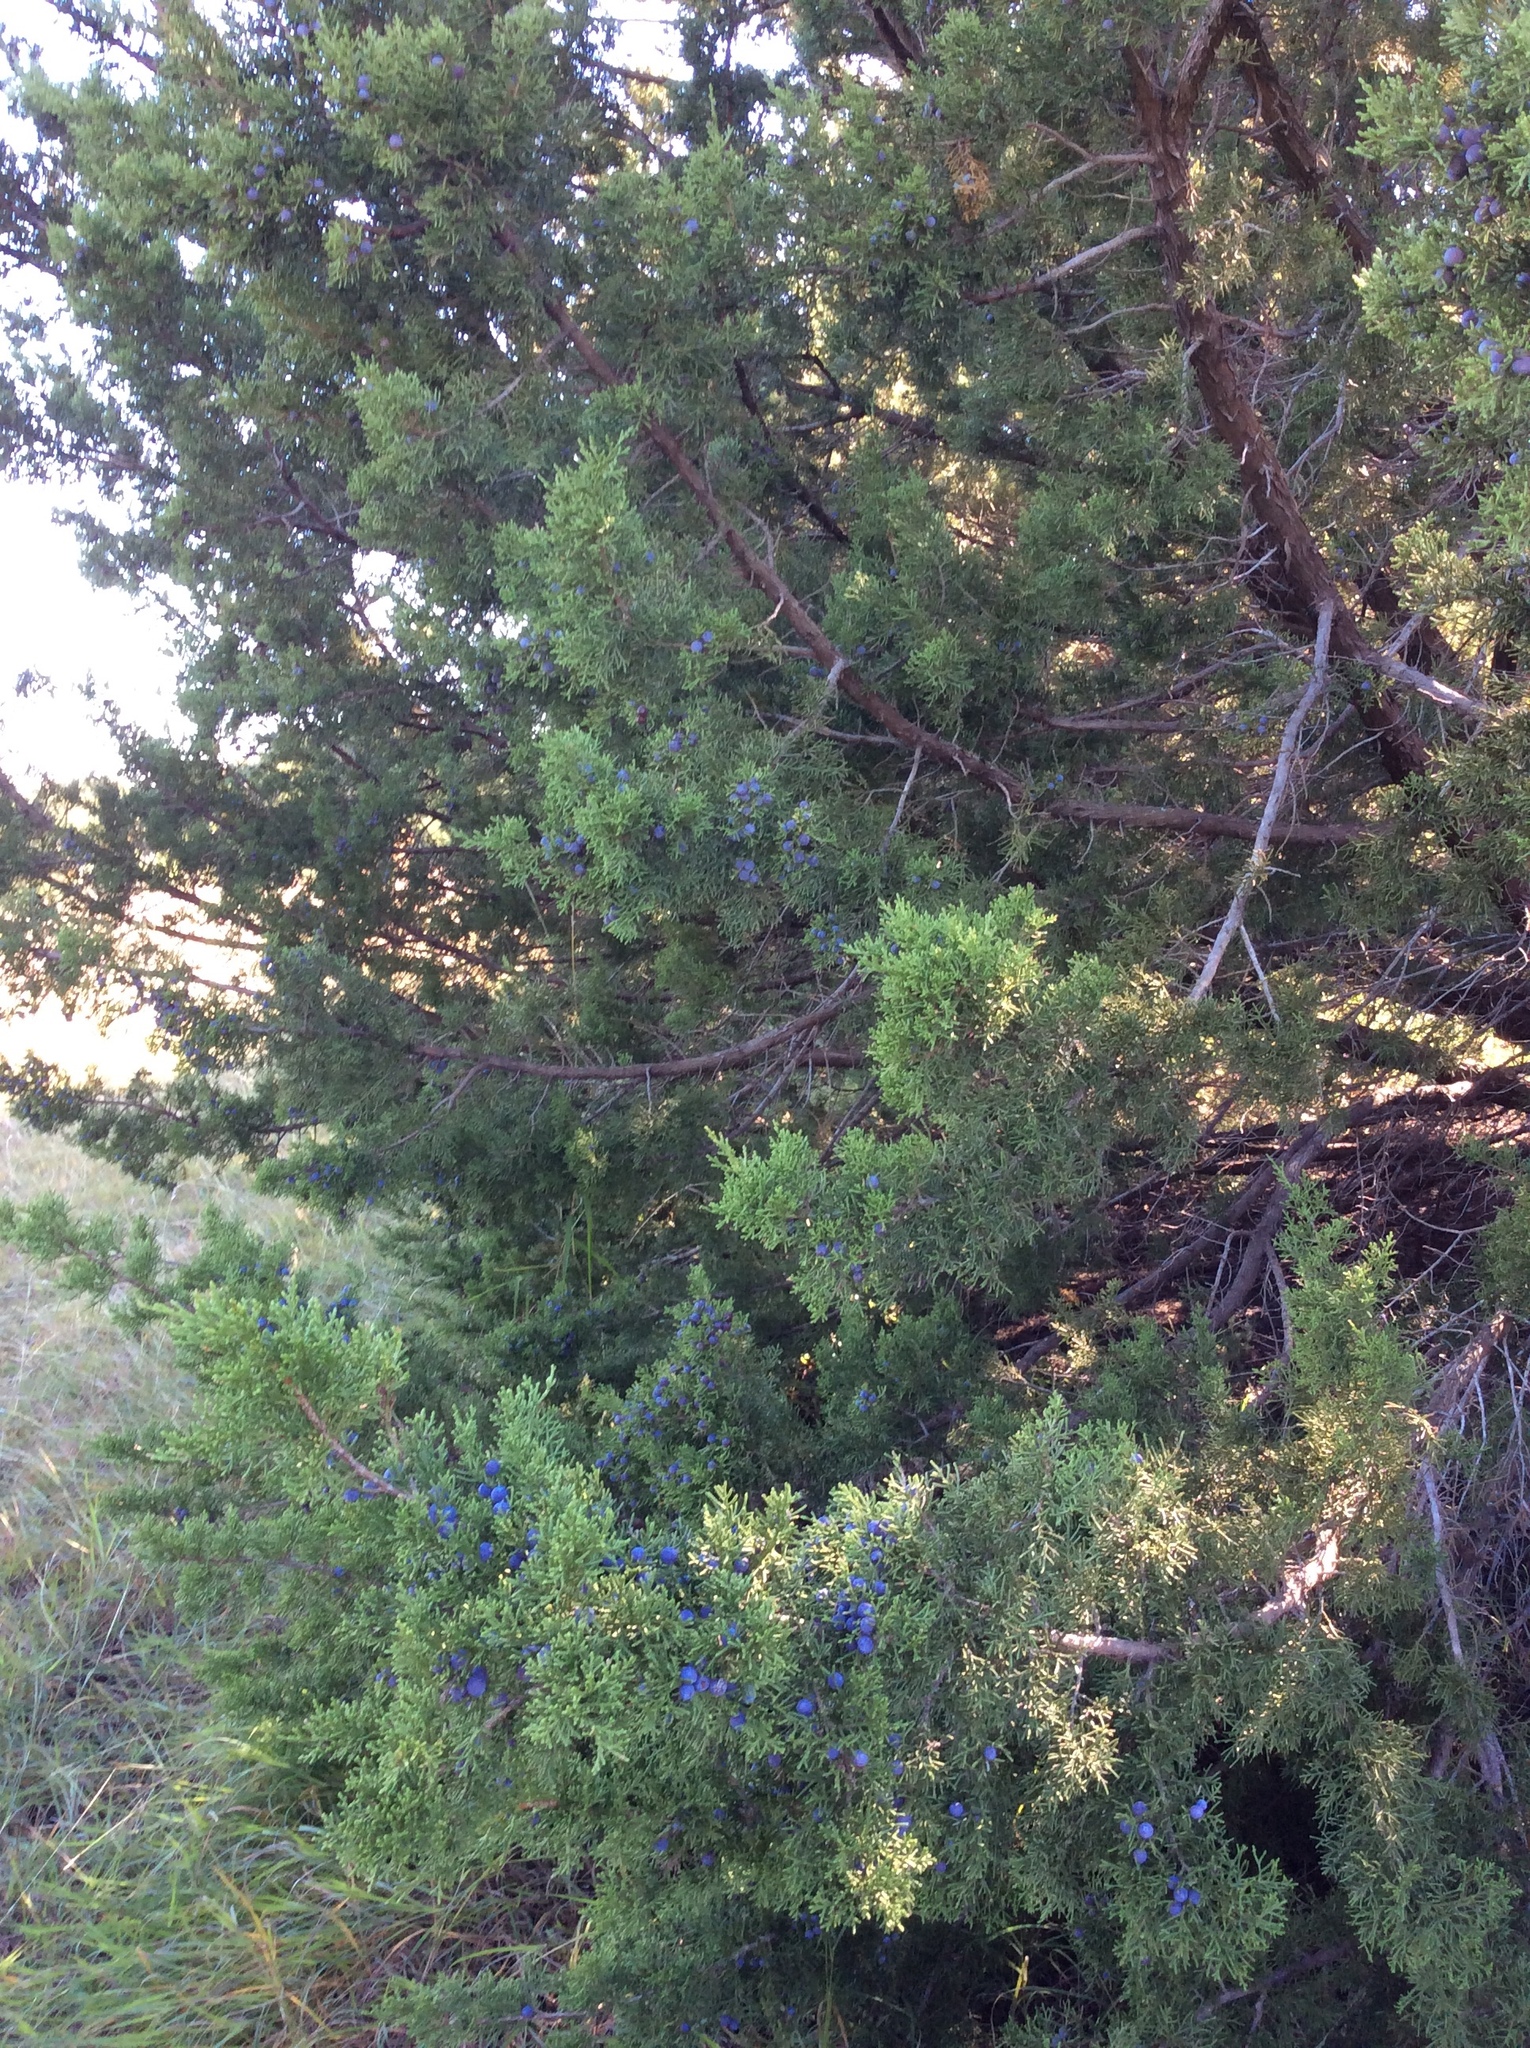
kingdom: Plantae
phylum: Tracheophyta
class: Pinopsida
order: Pinales
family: Cupressaceae
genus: Juniperus
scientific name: Juniperus ashei
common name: Mexican juniper
